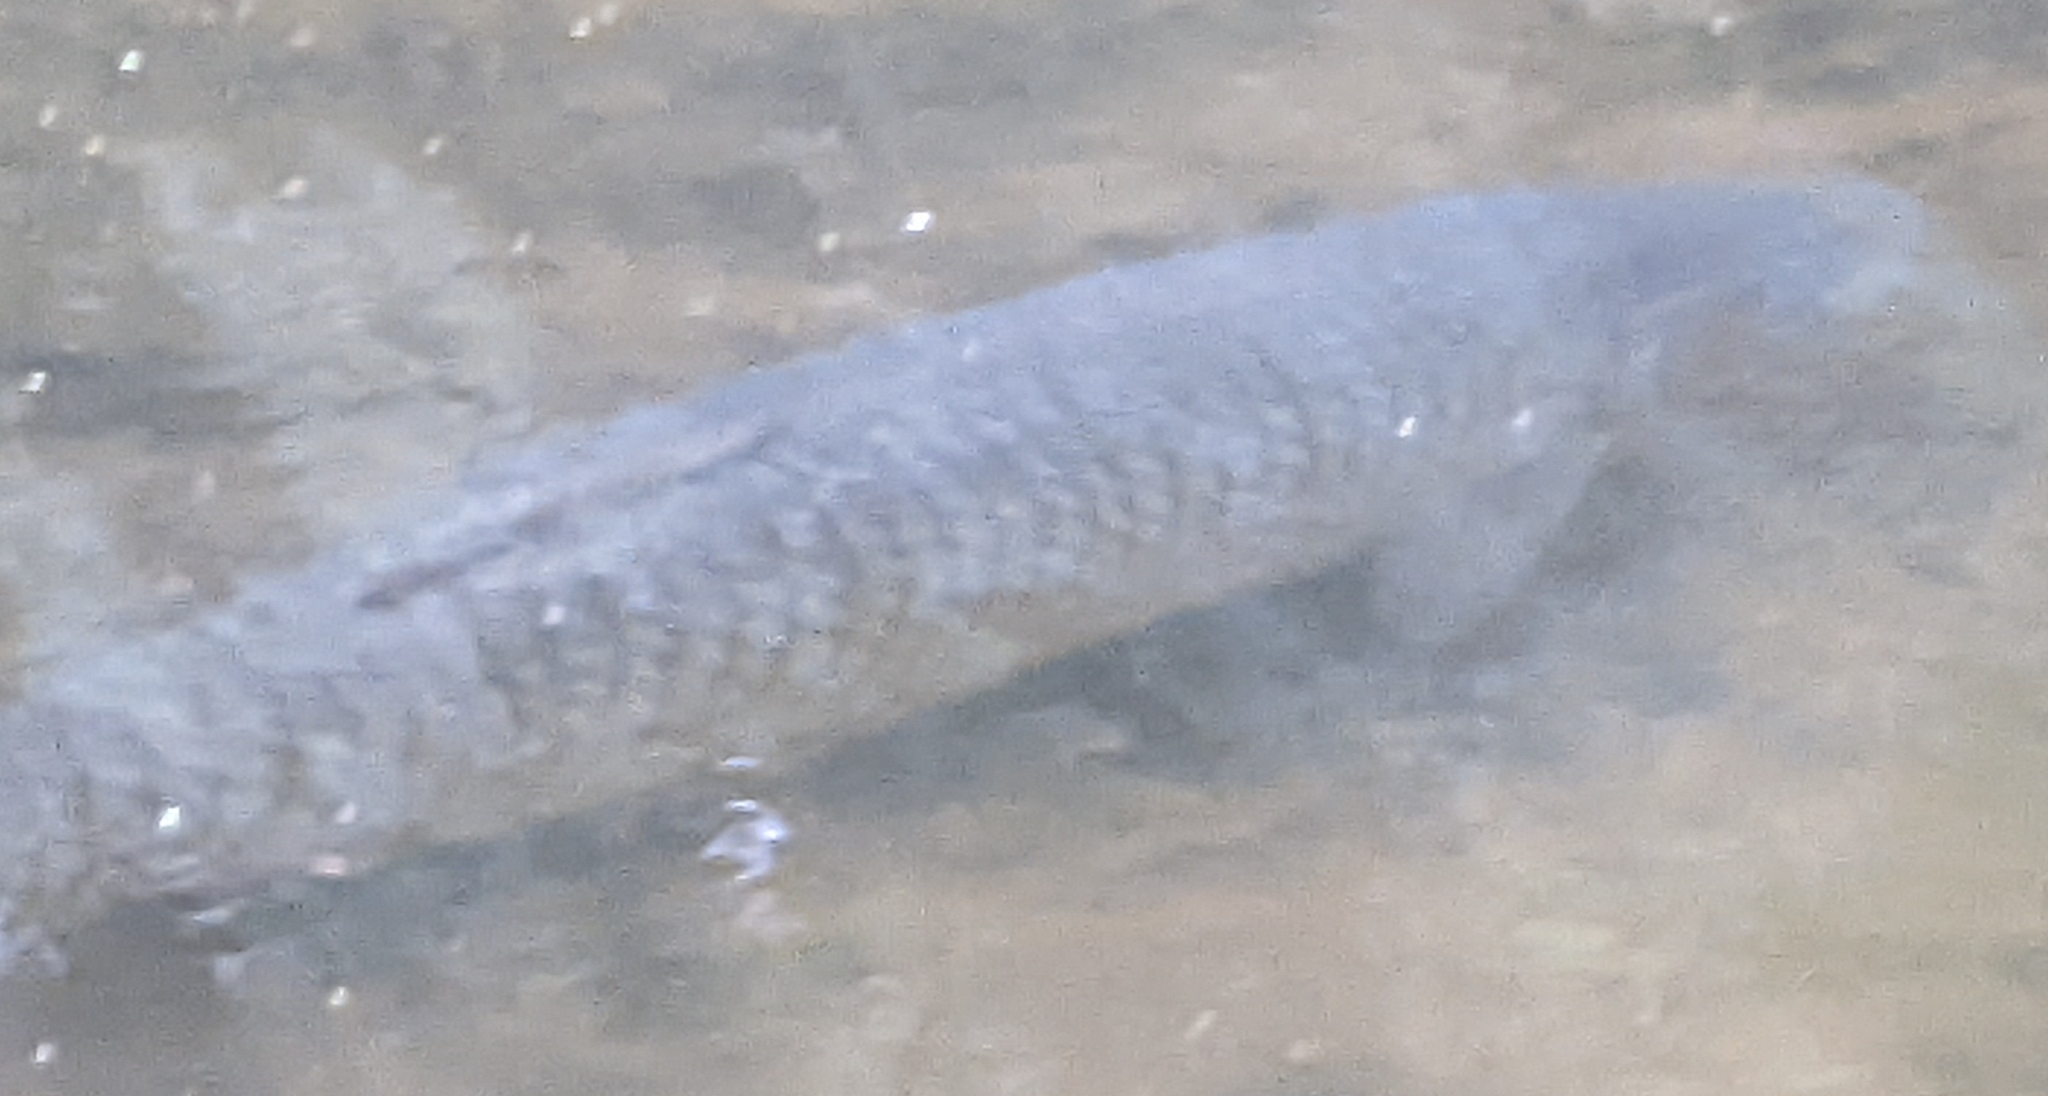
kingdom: Animalia
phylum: Chordata
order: Cypriniformes
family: Cyprinidae
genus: Ctenopharyngodon
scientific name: Ctenopharyngodon idella
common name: Grass carp
